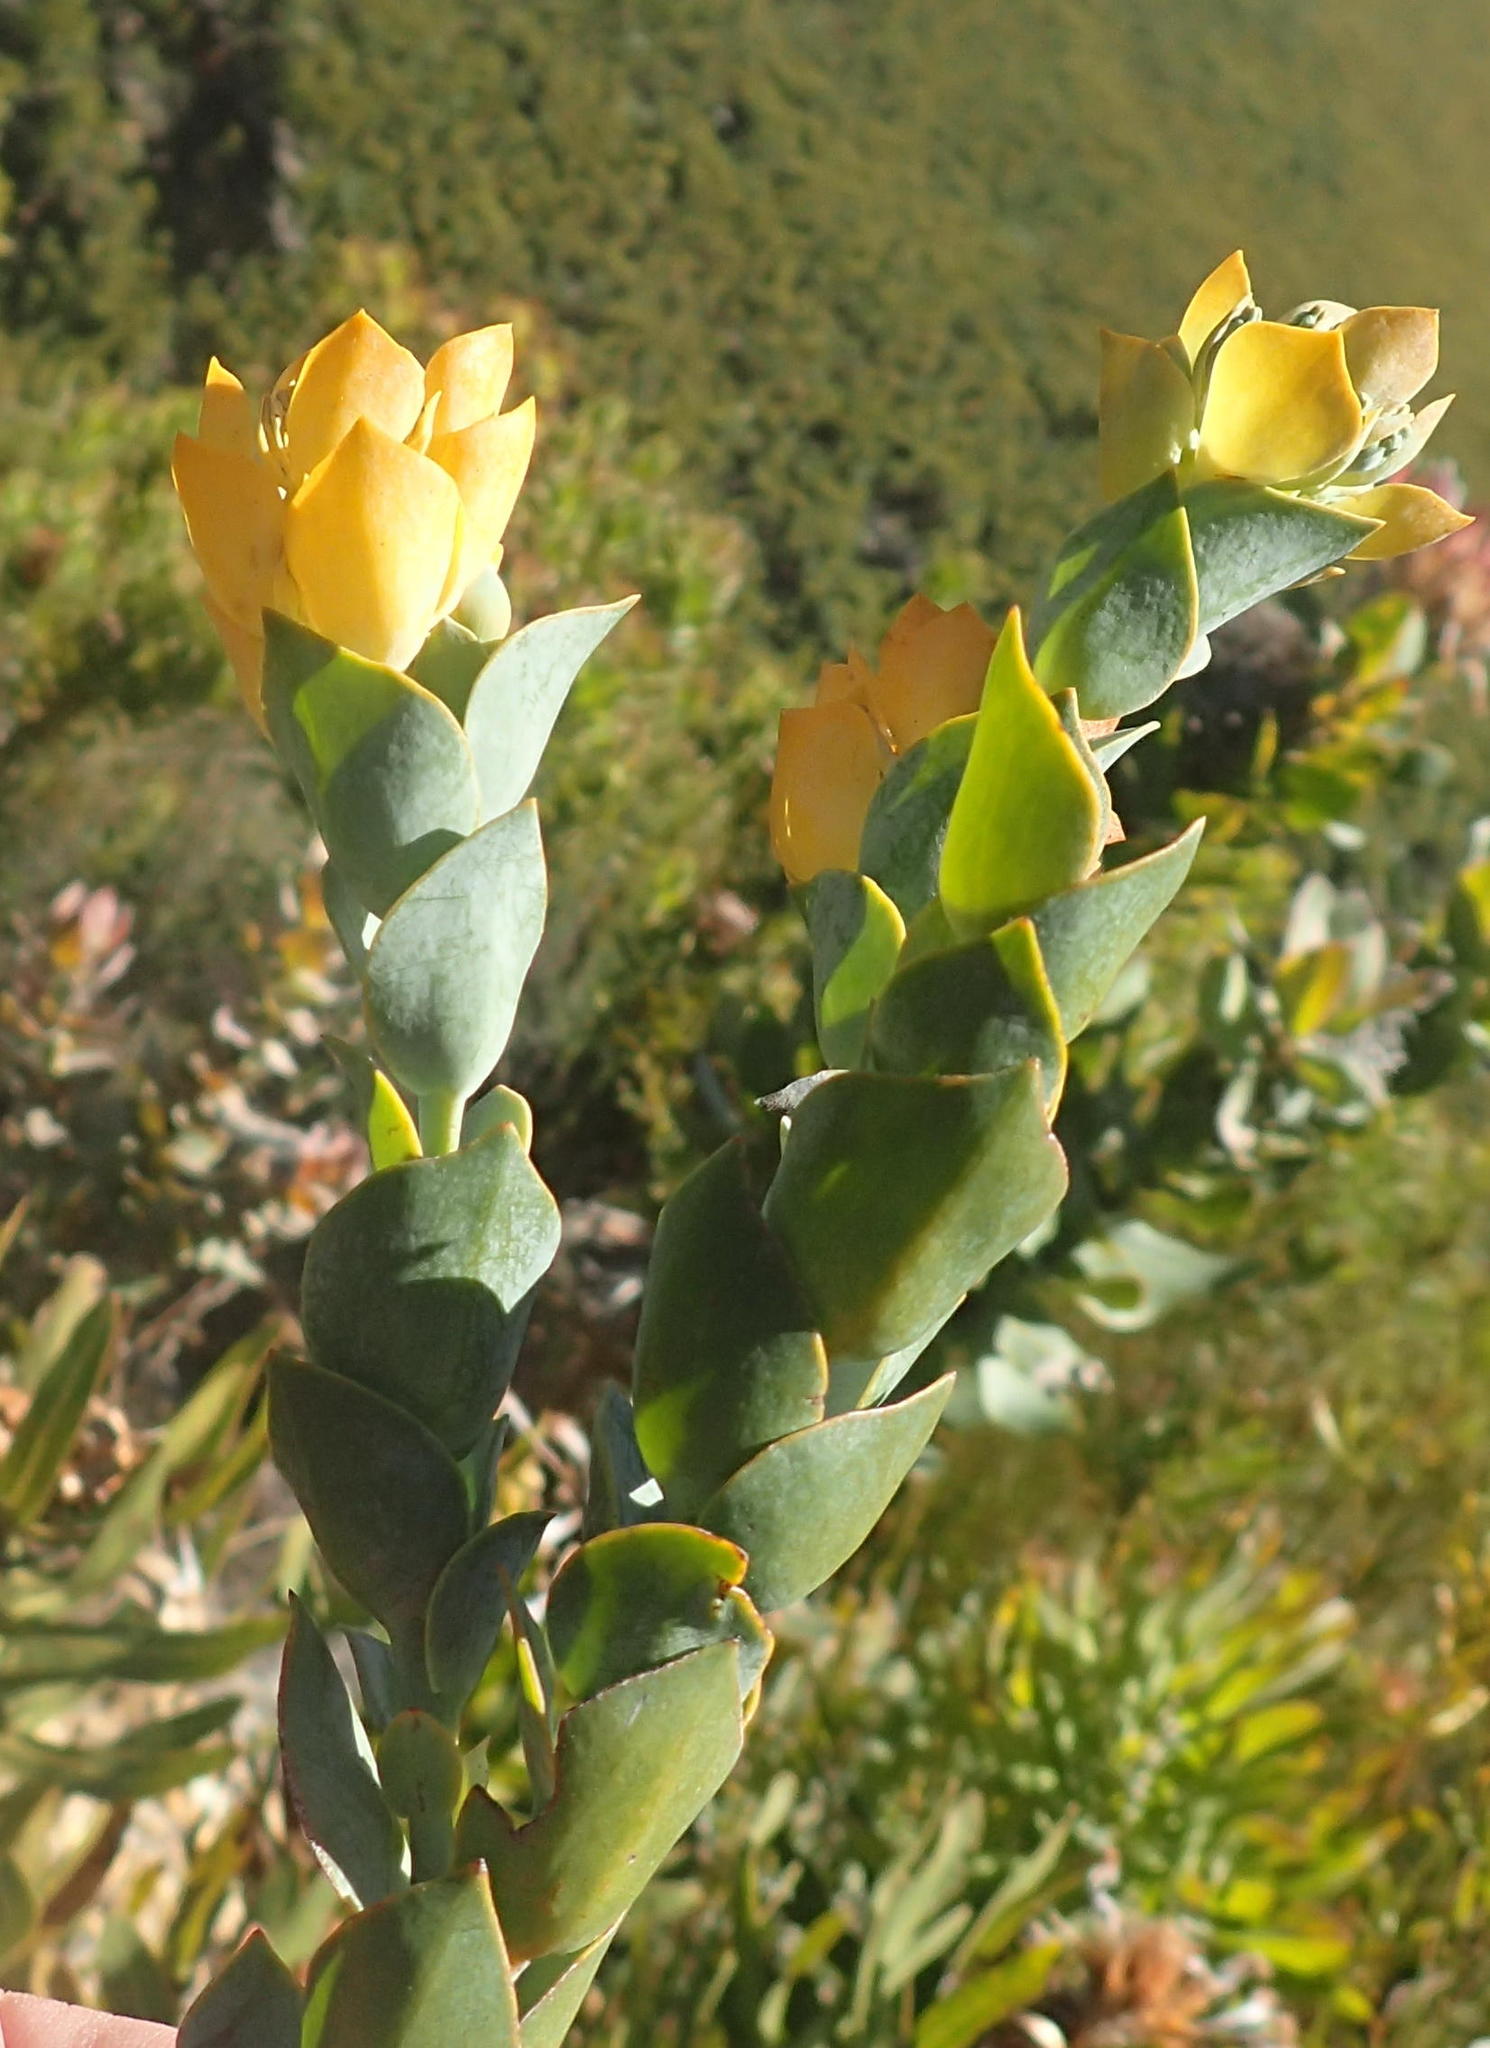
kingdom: Plantae
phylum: Tracheophyta
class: Magnoliopsida
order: Santalales
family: Thesiaceae
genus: Thesium
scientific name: Thesium euphorbioides
